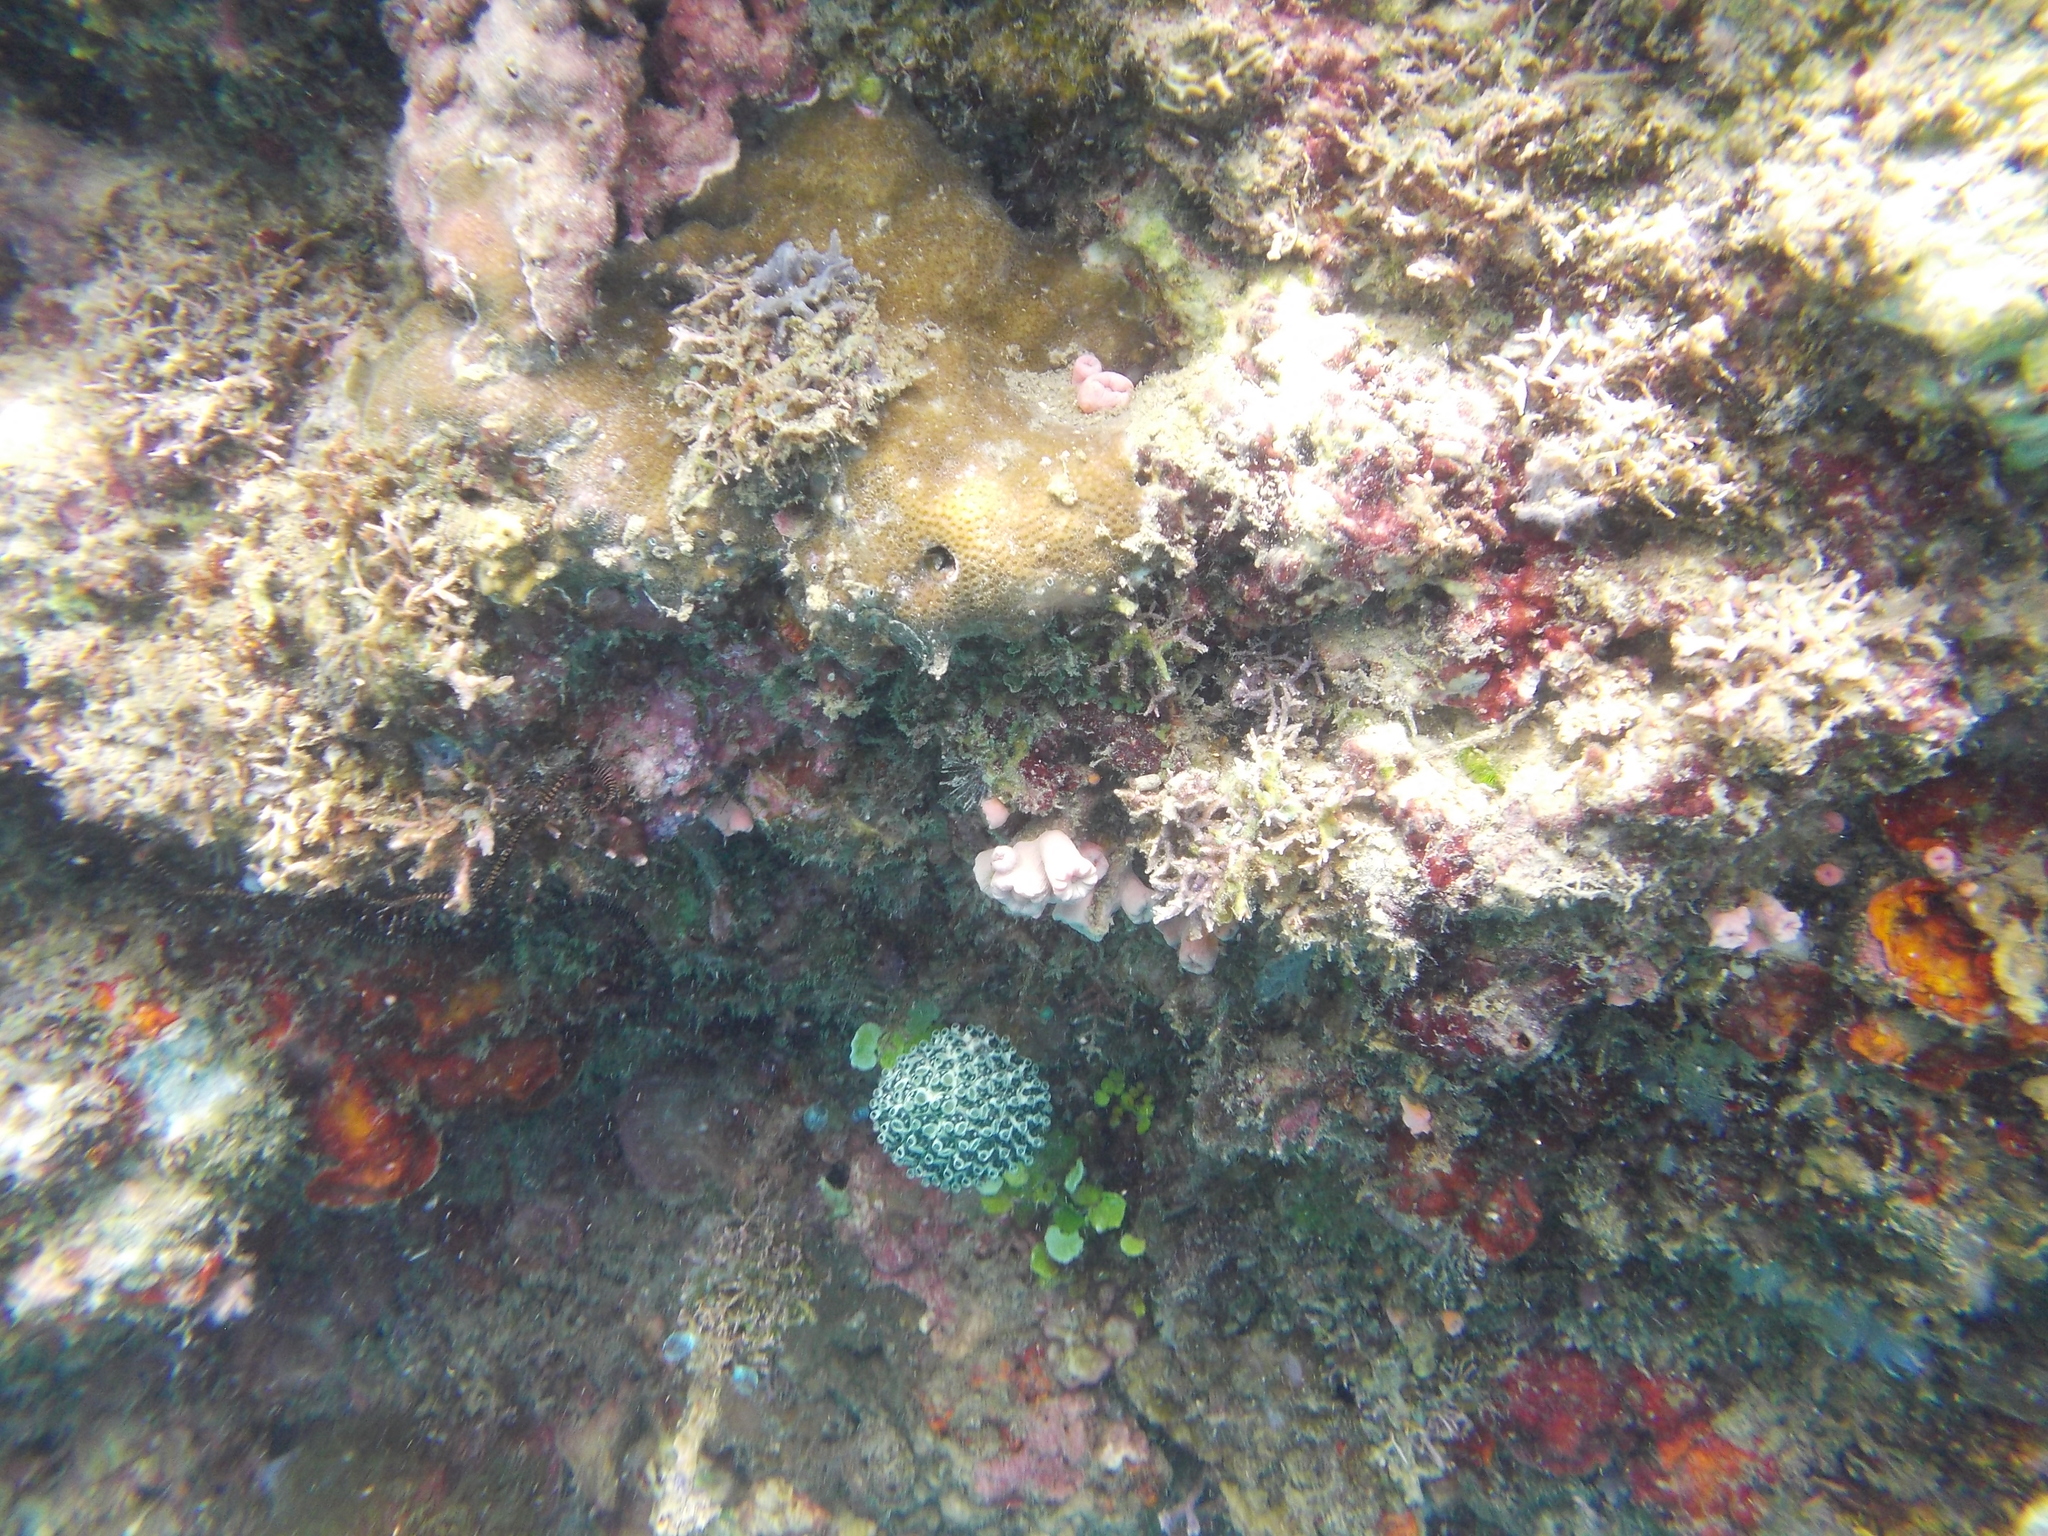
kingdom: Animalia
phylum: Chordata
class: Ascidiacea
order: Aplousobranchia
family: Clavelinidae
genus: Nephtheis
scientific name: Nephtheis fascicularis
